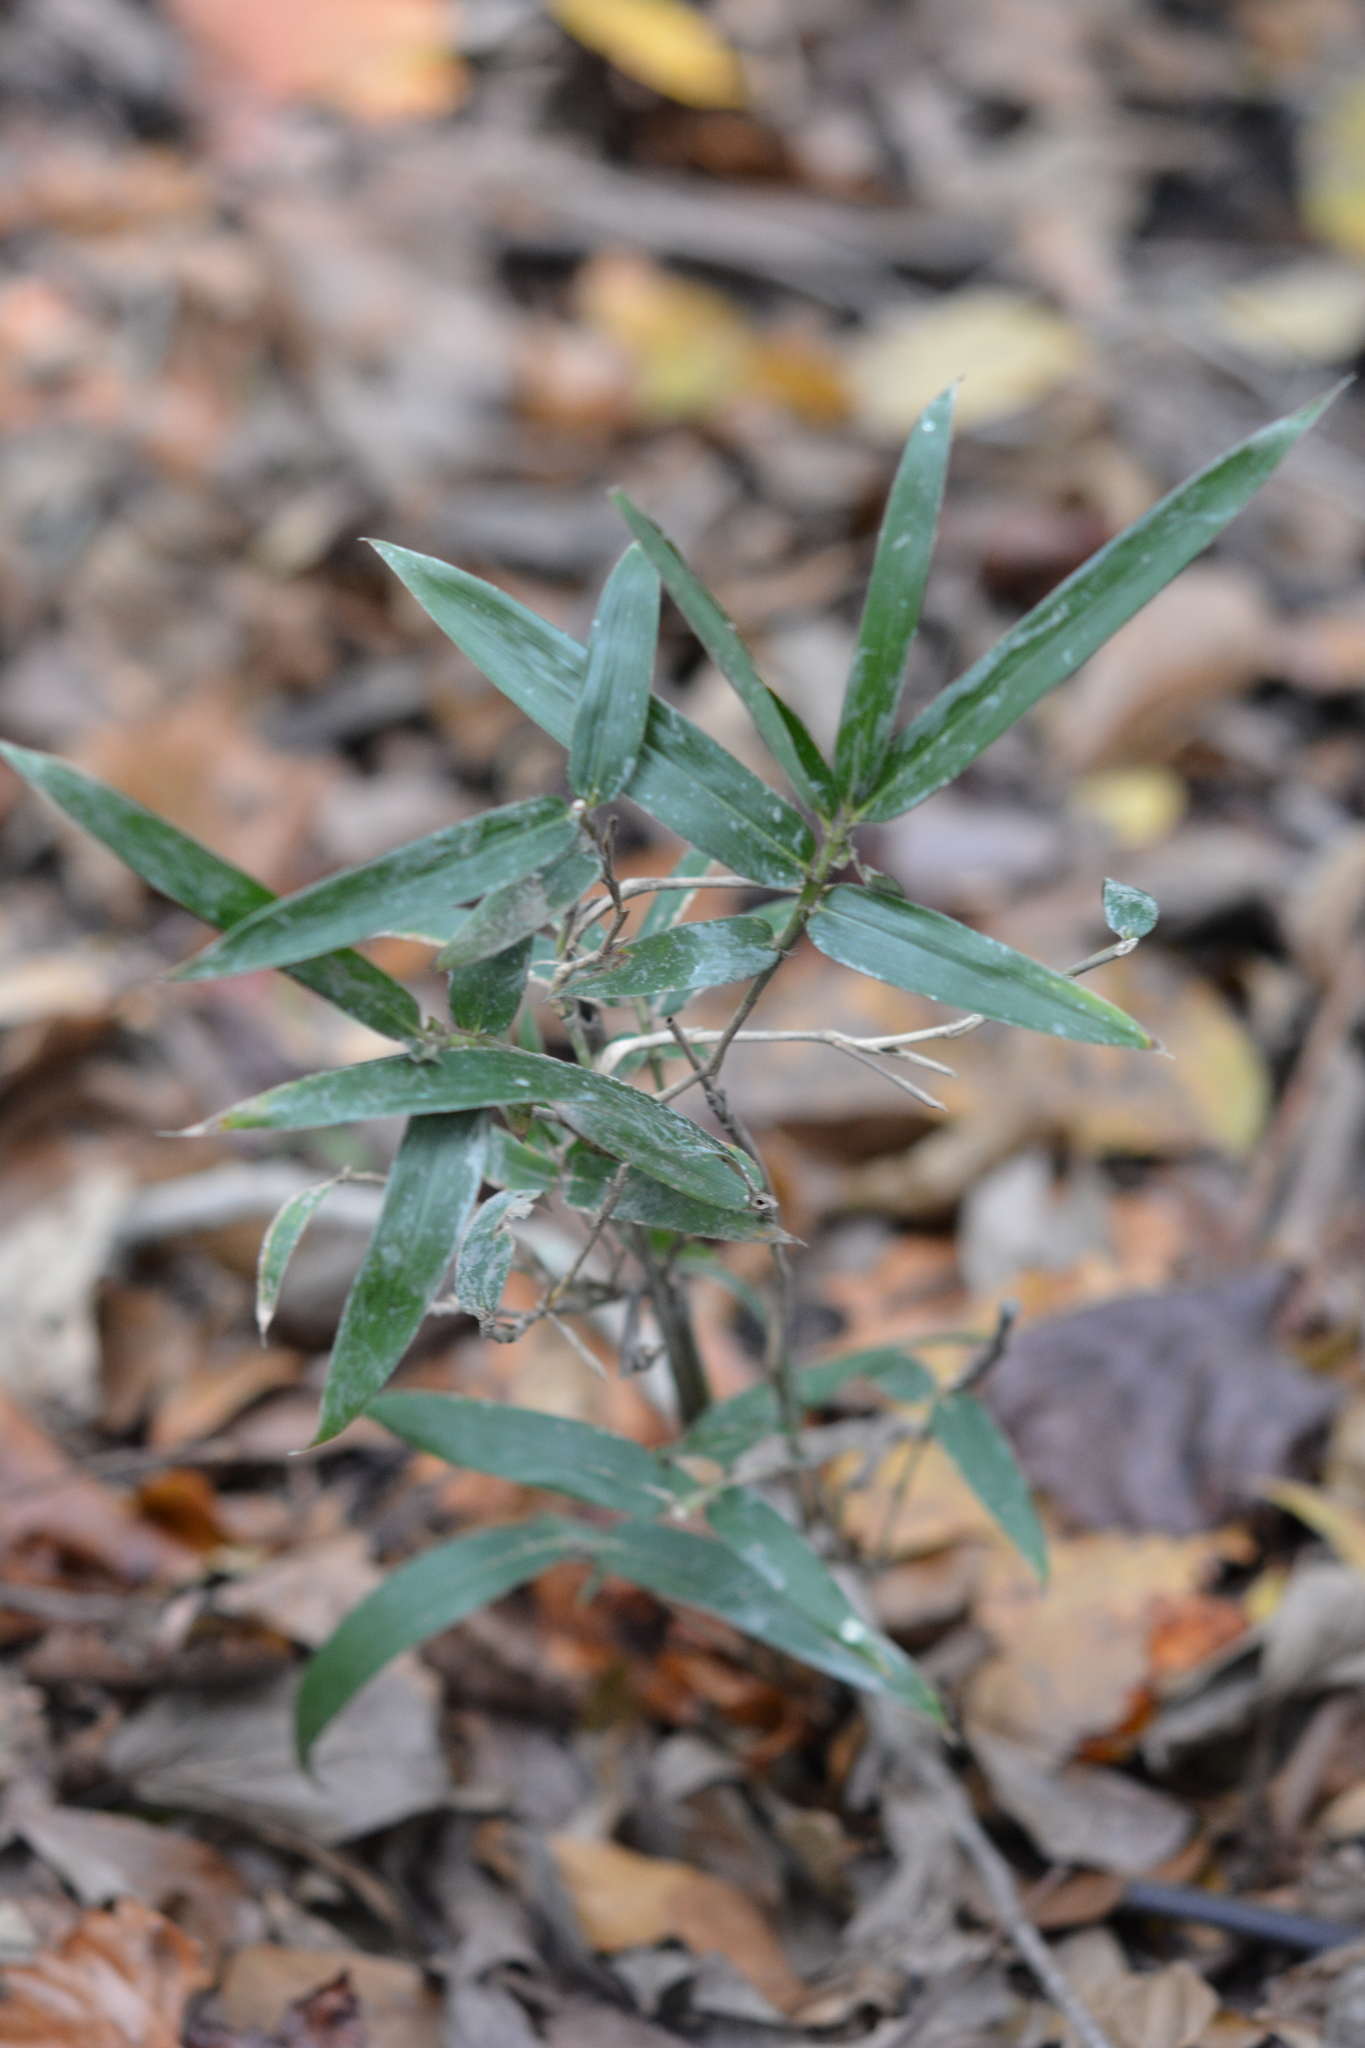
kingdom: Plantae
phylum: Tracheophyta
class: Liliopsida
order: Poales
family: Poaceae
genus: Arundinaria
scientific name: Arundinaria gigantea
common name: Giant cane
